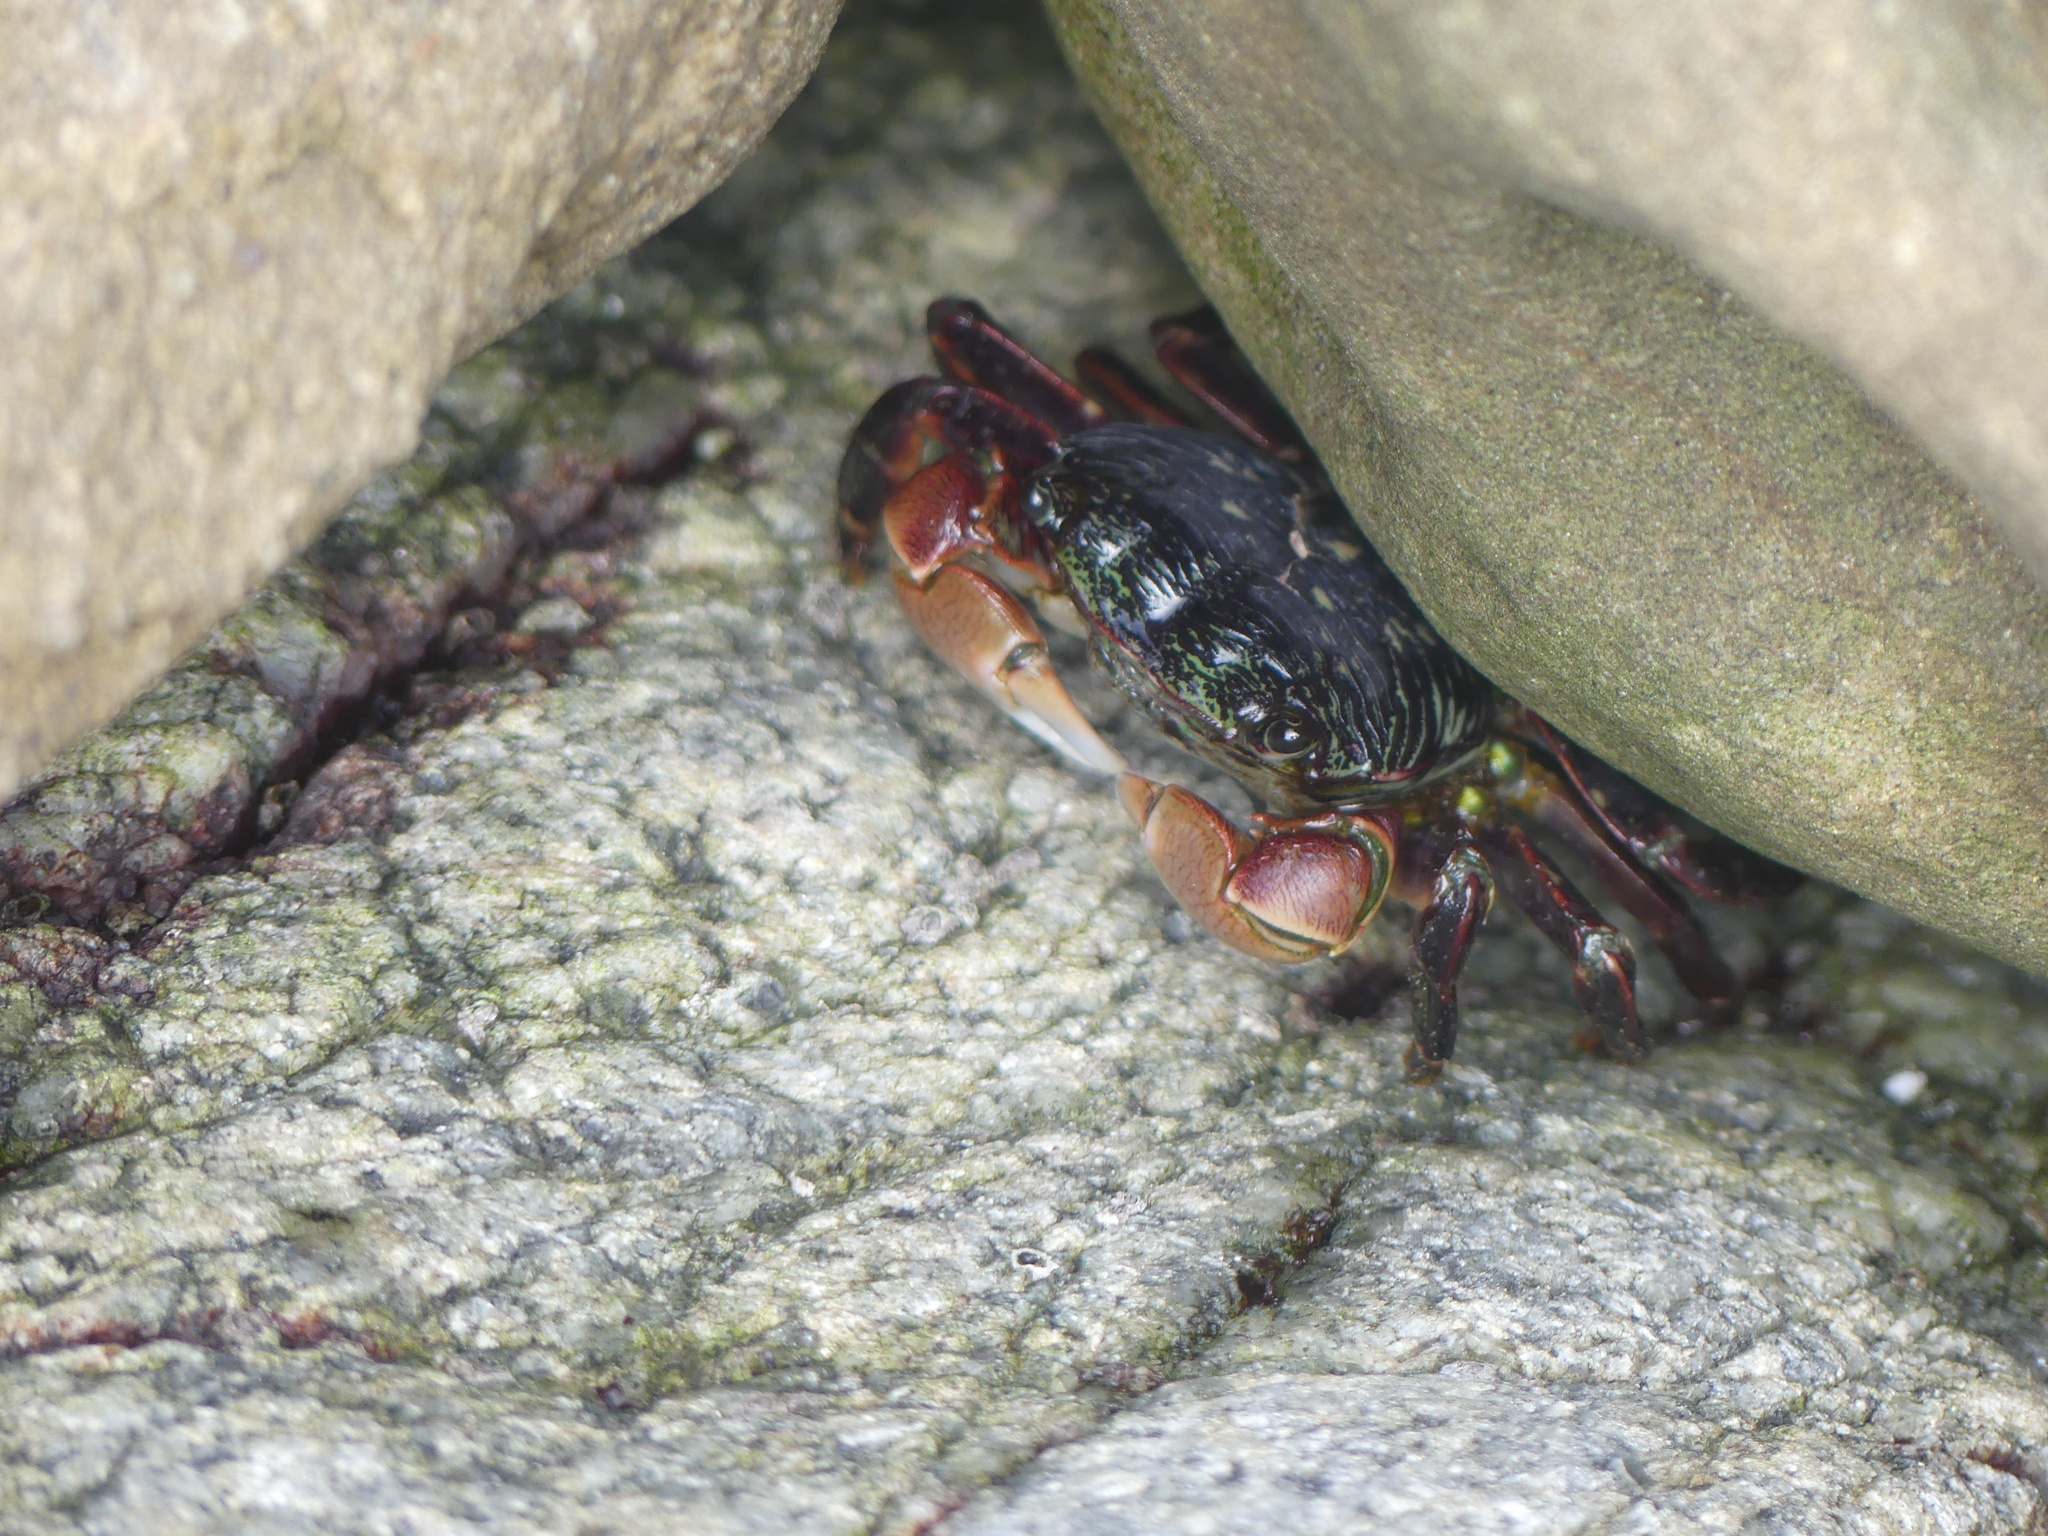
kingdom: Animalia
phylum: Arthropoda
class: Malacostraca
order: Decapoda
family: Grapsidae
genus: Pachygrapsus
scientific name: Pachygrapsus crassipes
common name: Striped shore crab
